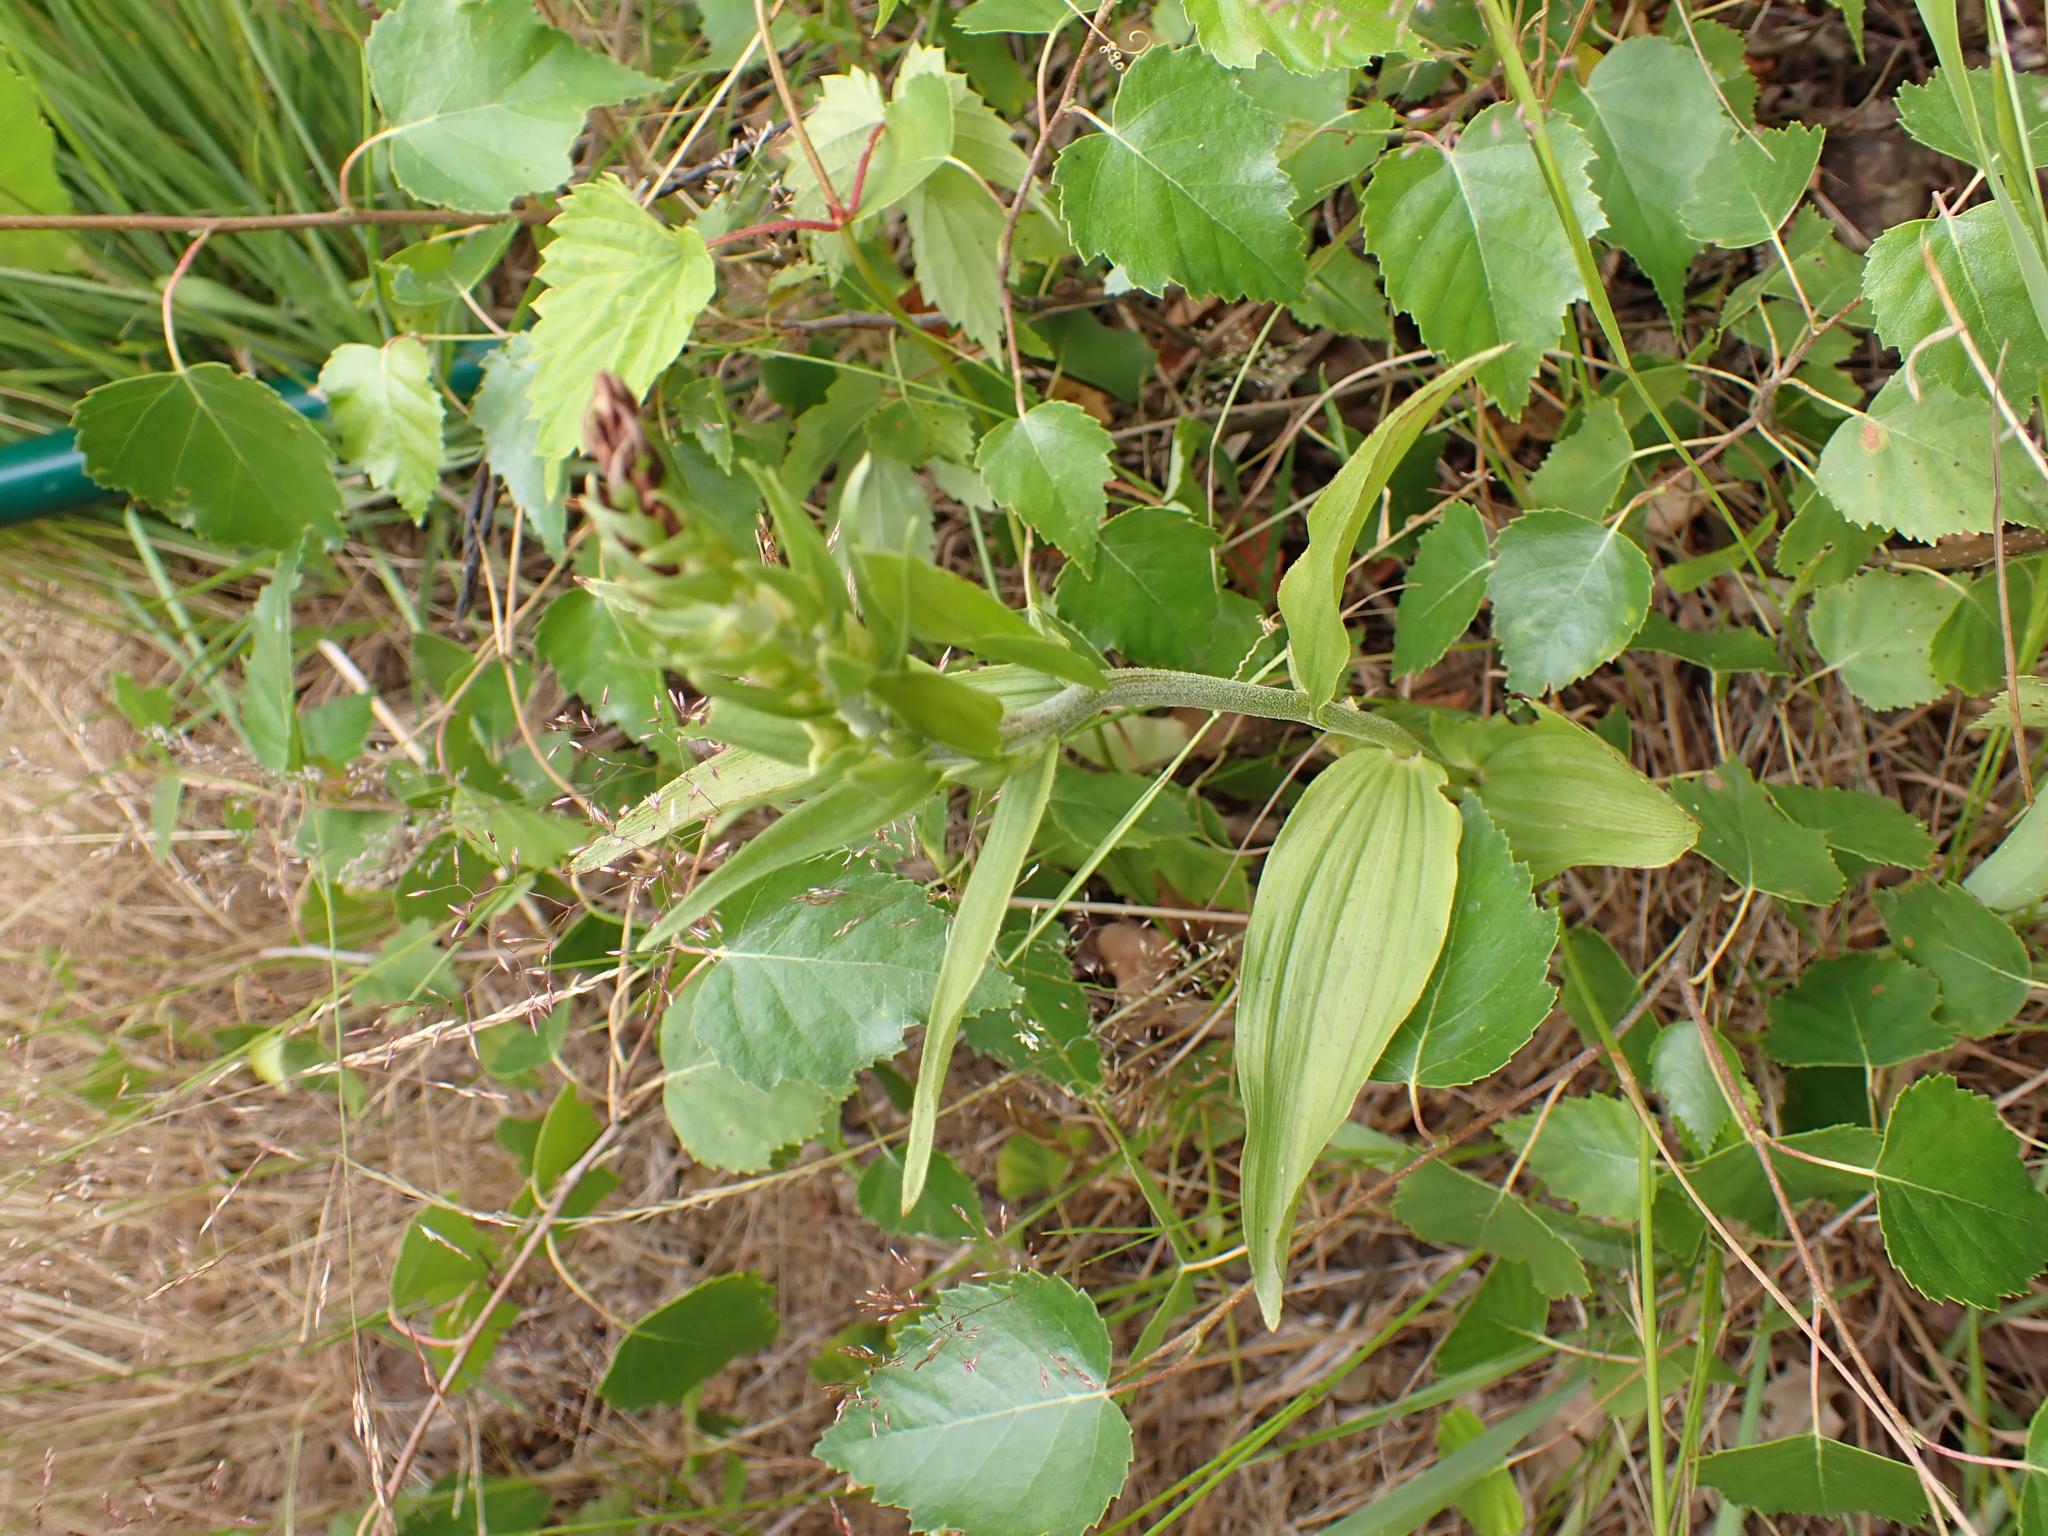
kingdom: Plantae
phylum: Tracheophyta
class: Liliopsida
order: Asparagales
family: Orchidaceae
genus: Epipactis
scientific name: Epipactis helleborine
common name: Broad-leaved helleborine
